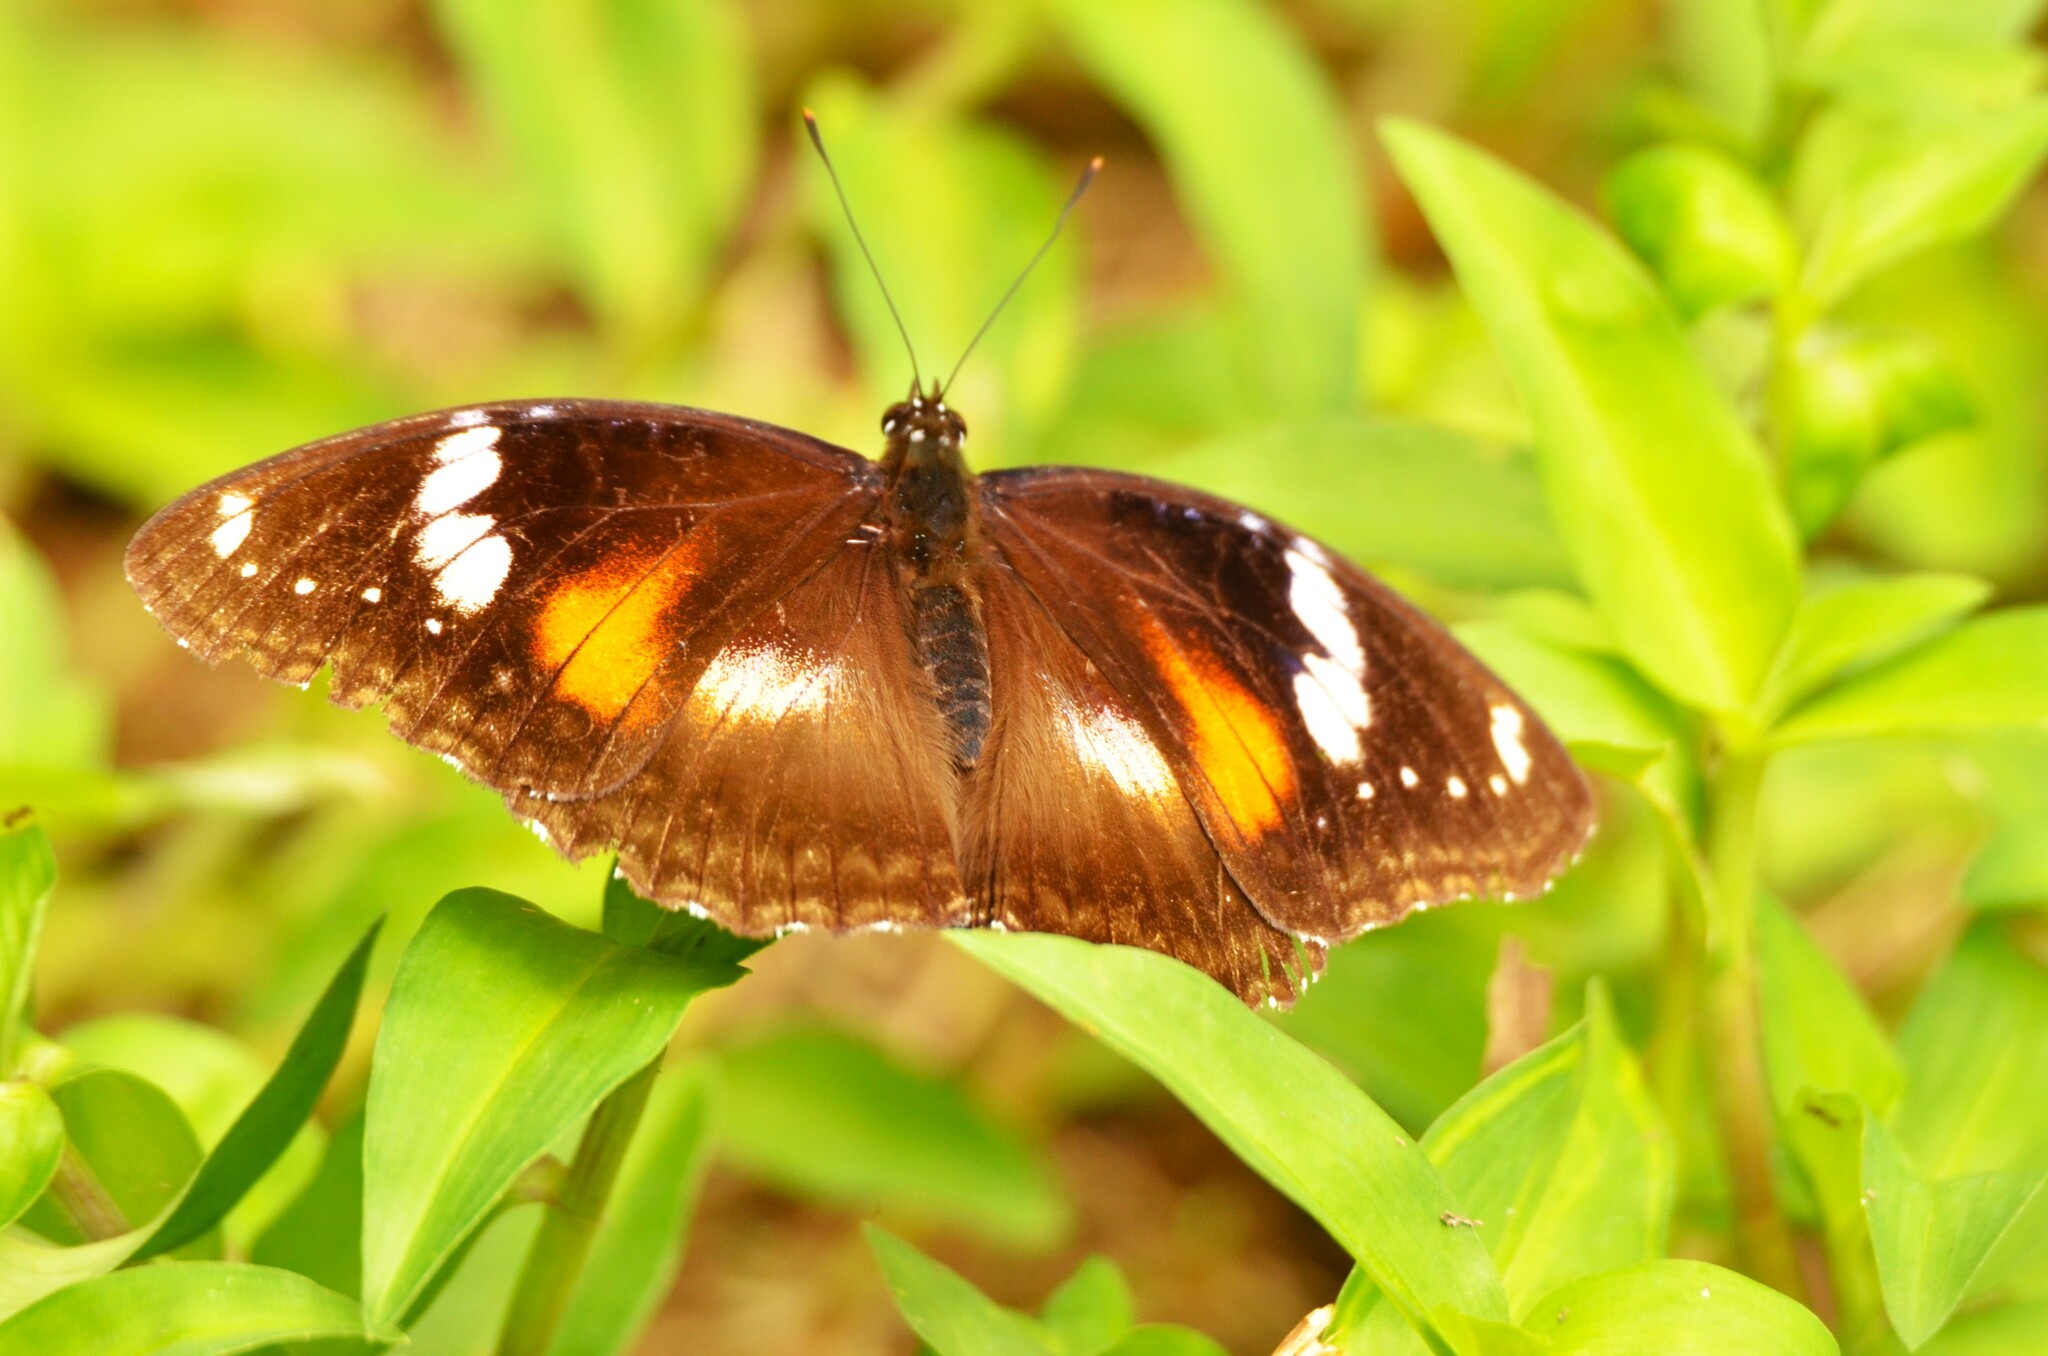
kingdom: Animalia
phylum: Arthropoda
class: Insecta
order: Lepidoptera
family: Nymphalidae
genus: Hypolimnas
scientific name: Hypolimnas bolina
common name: Great eggfly
